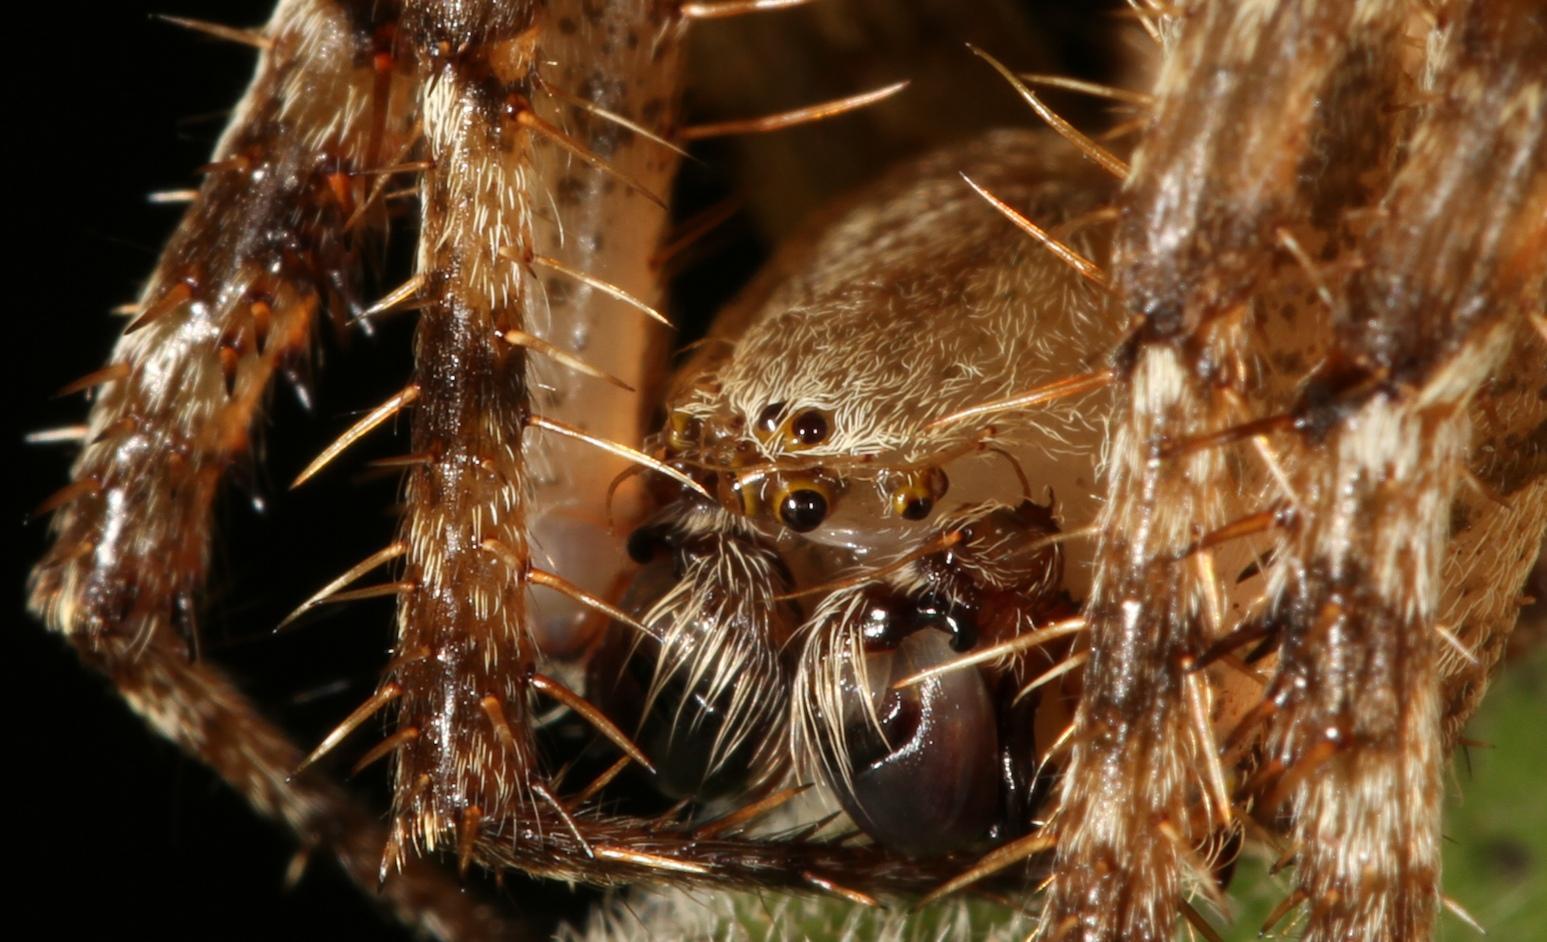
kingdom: Animalia
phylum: Arthropoda
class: Arachnida
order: Araneae
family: Araneidae
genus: Pararaneus
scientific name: Pararaneus perforatus
